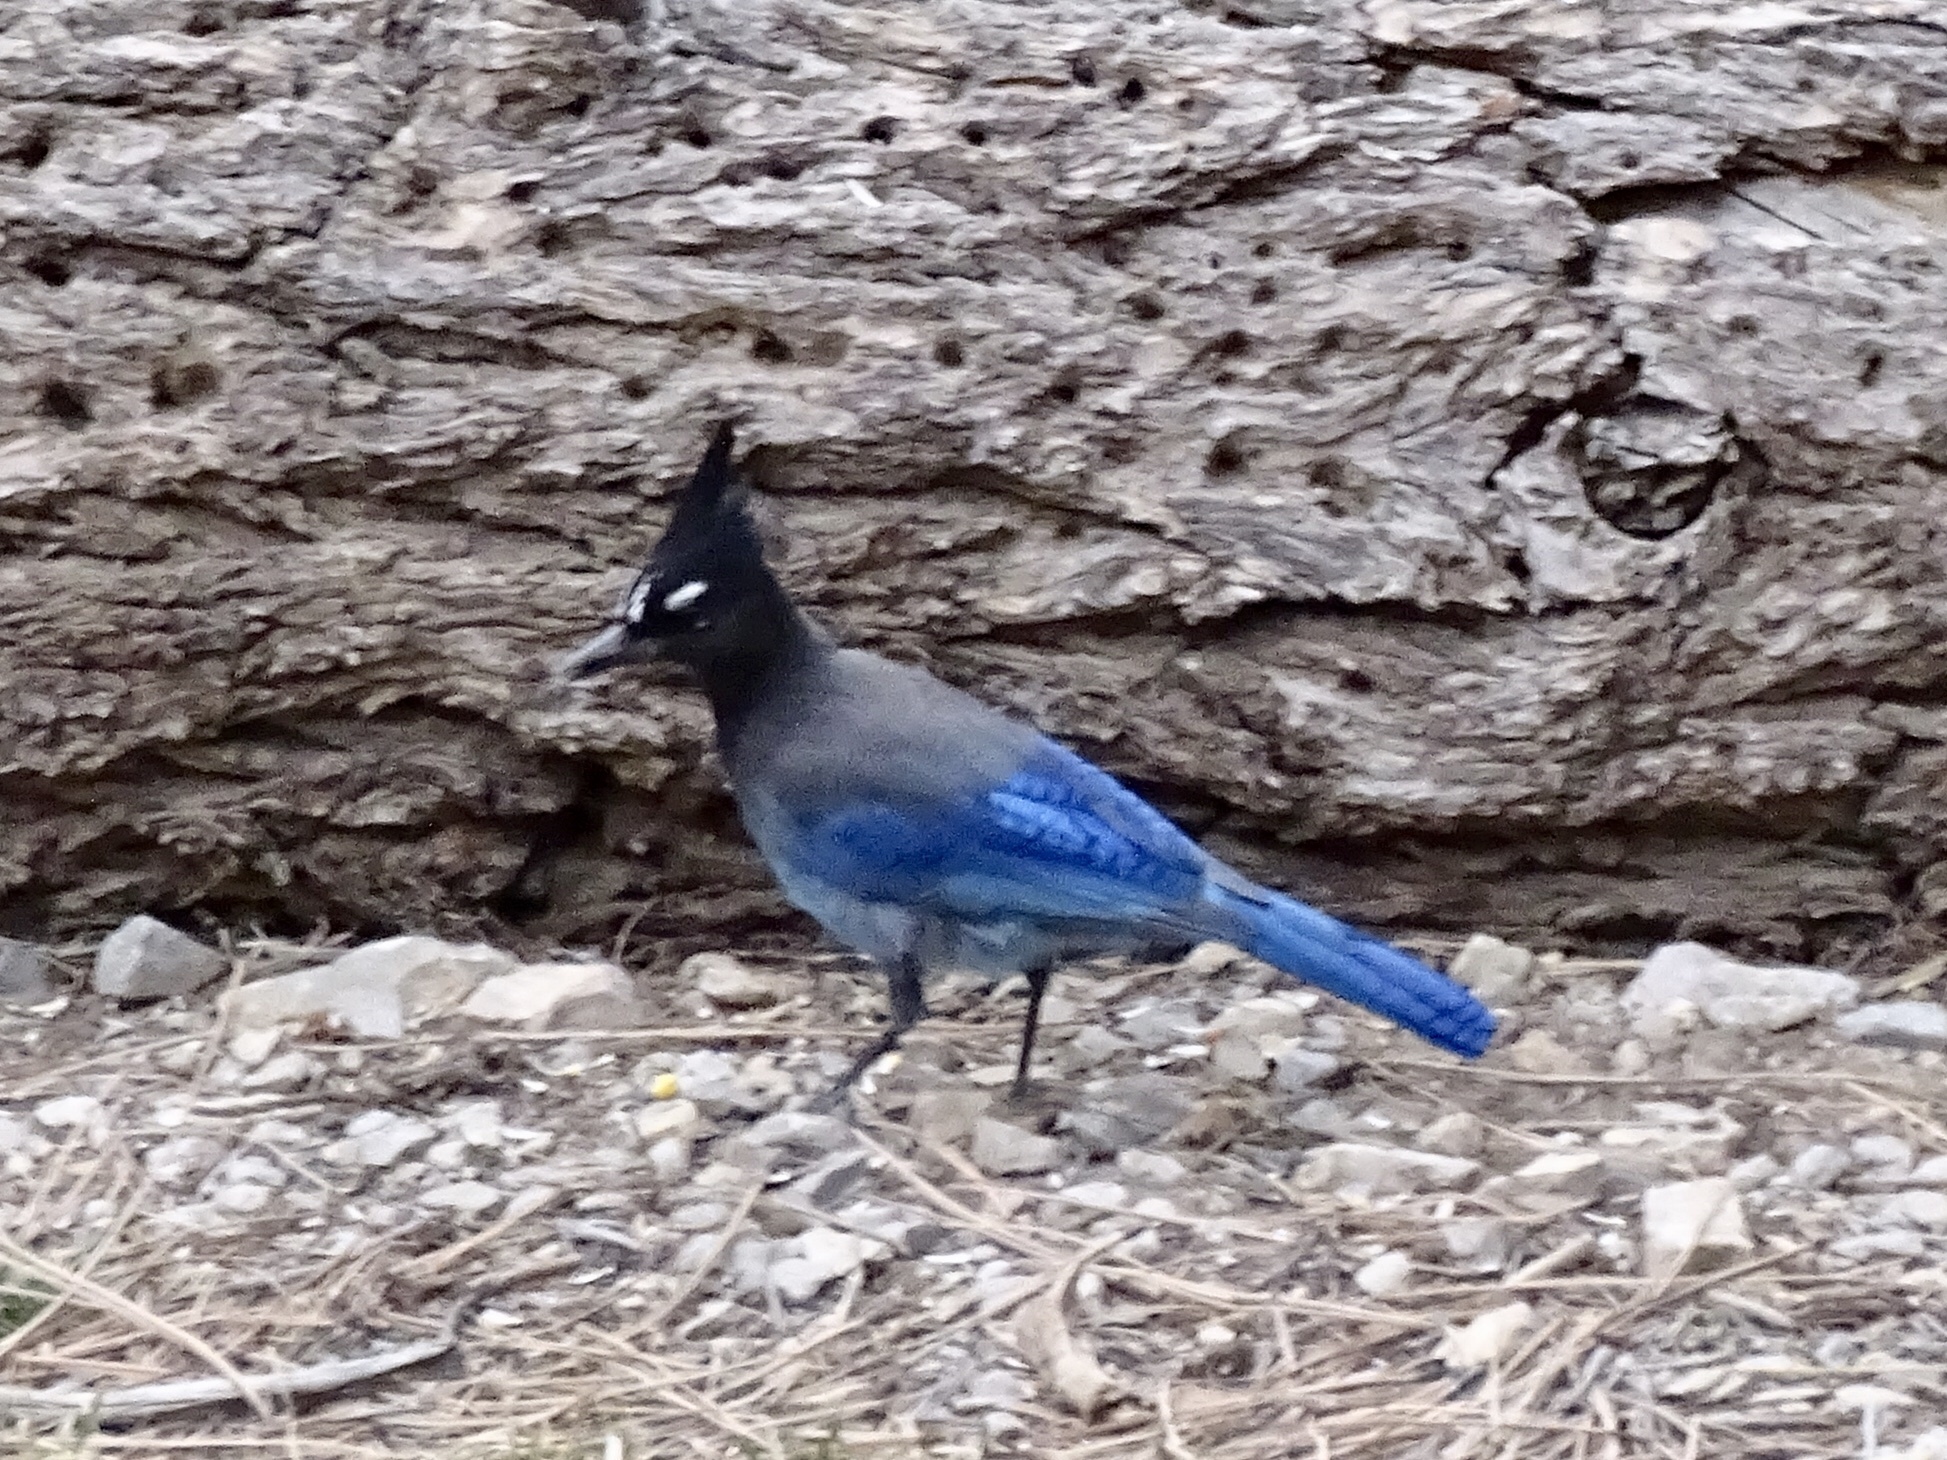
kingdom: Animalia
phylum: Chordata
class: Aves
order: Passeriformes
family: Corvidae
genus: Cyanocitta
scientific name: Cyanocitta stelleri
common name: Steller's jay
